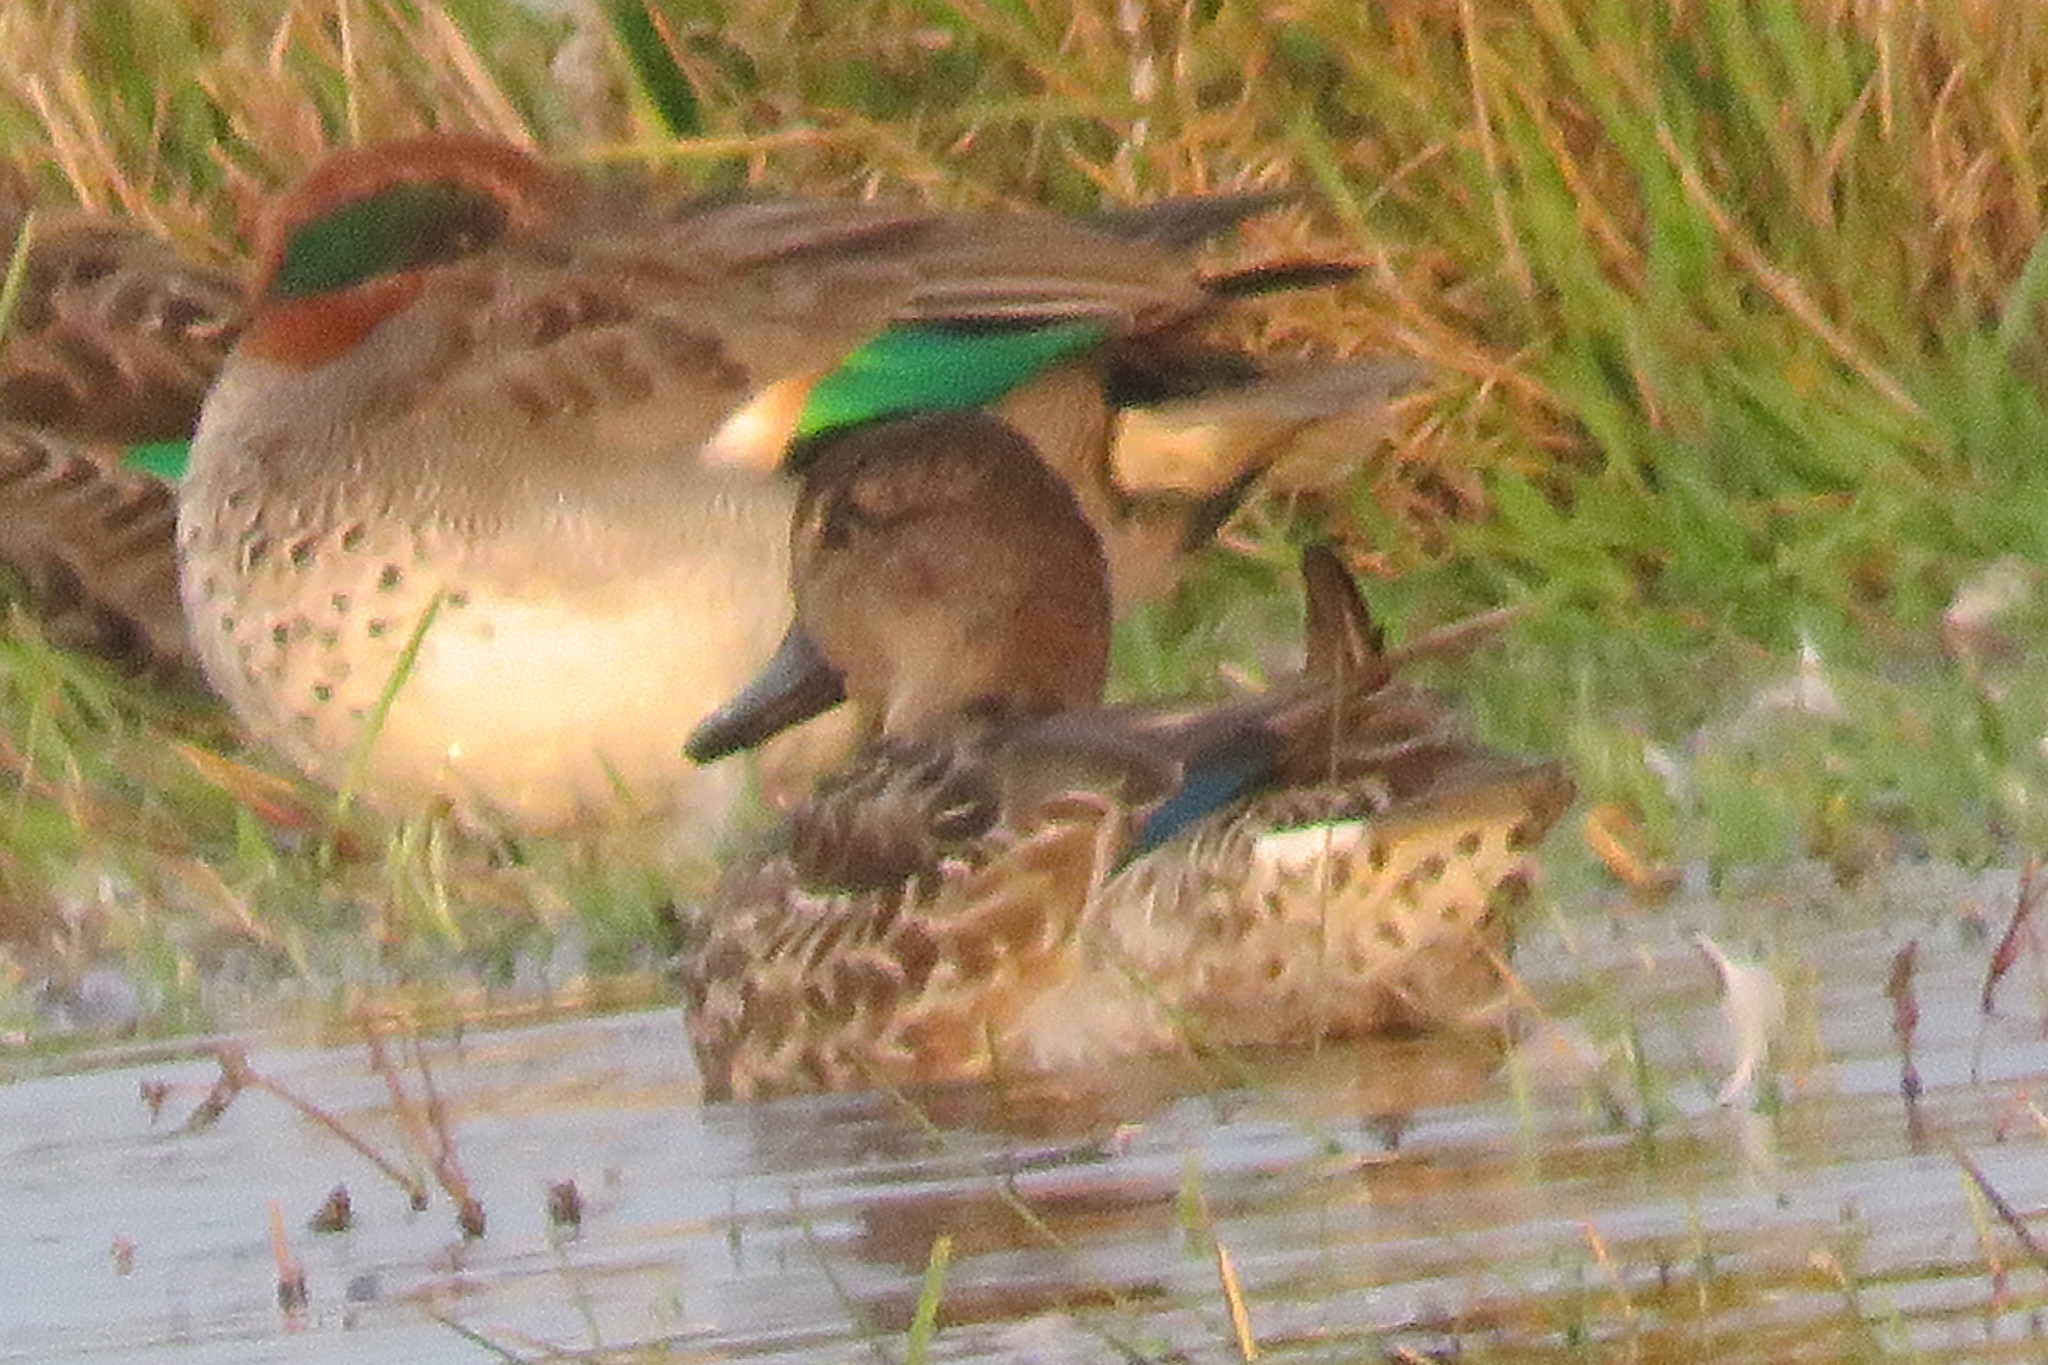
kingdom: Animalia
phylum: Chordata
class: Aves
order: Anseriformes
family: Anatidae
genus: Anas
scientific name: Anas crecca
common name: Eurasian teal
